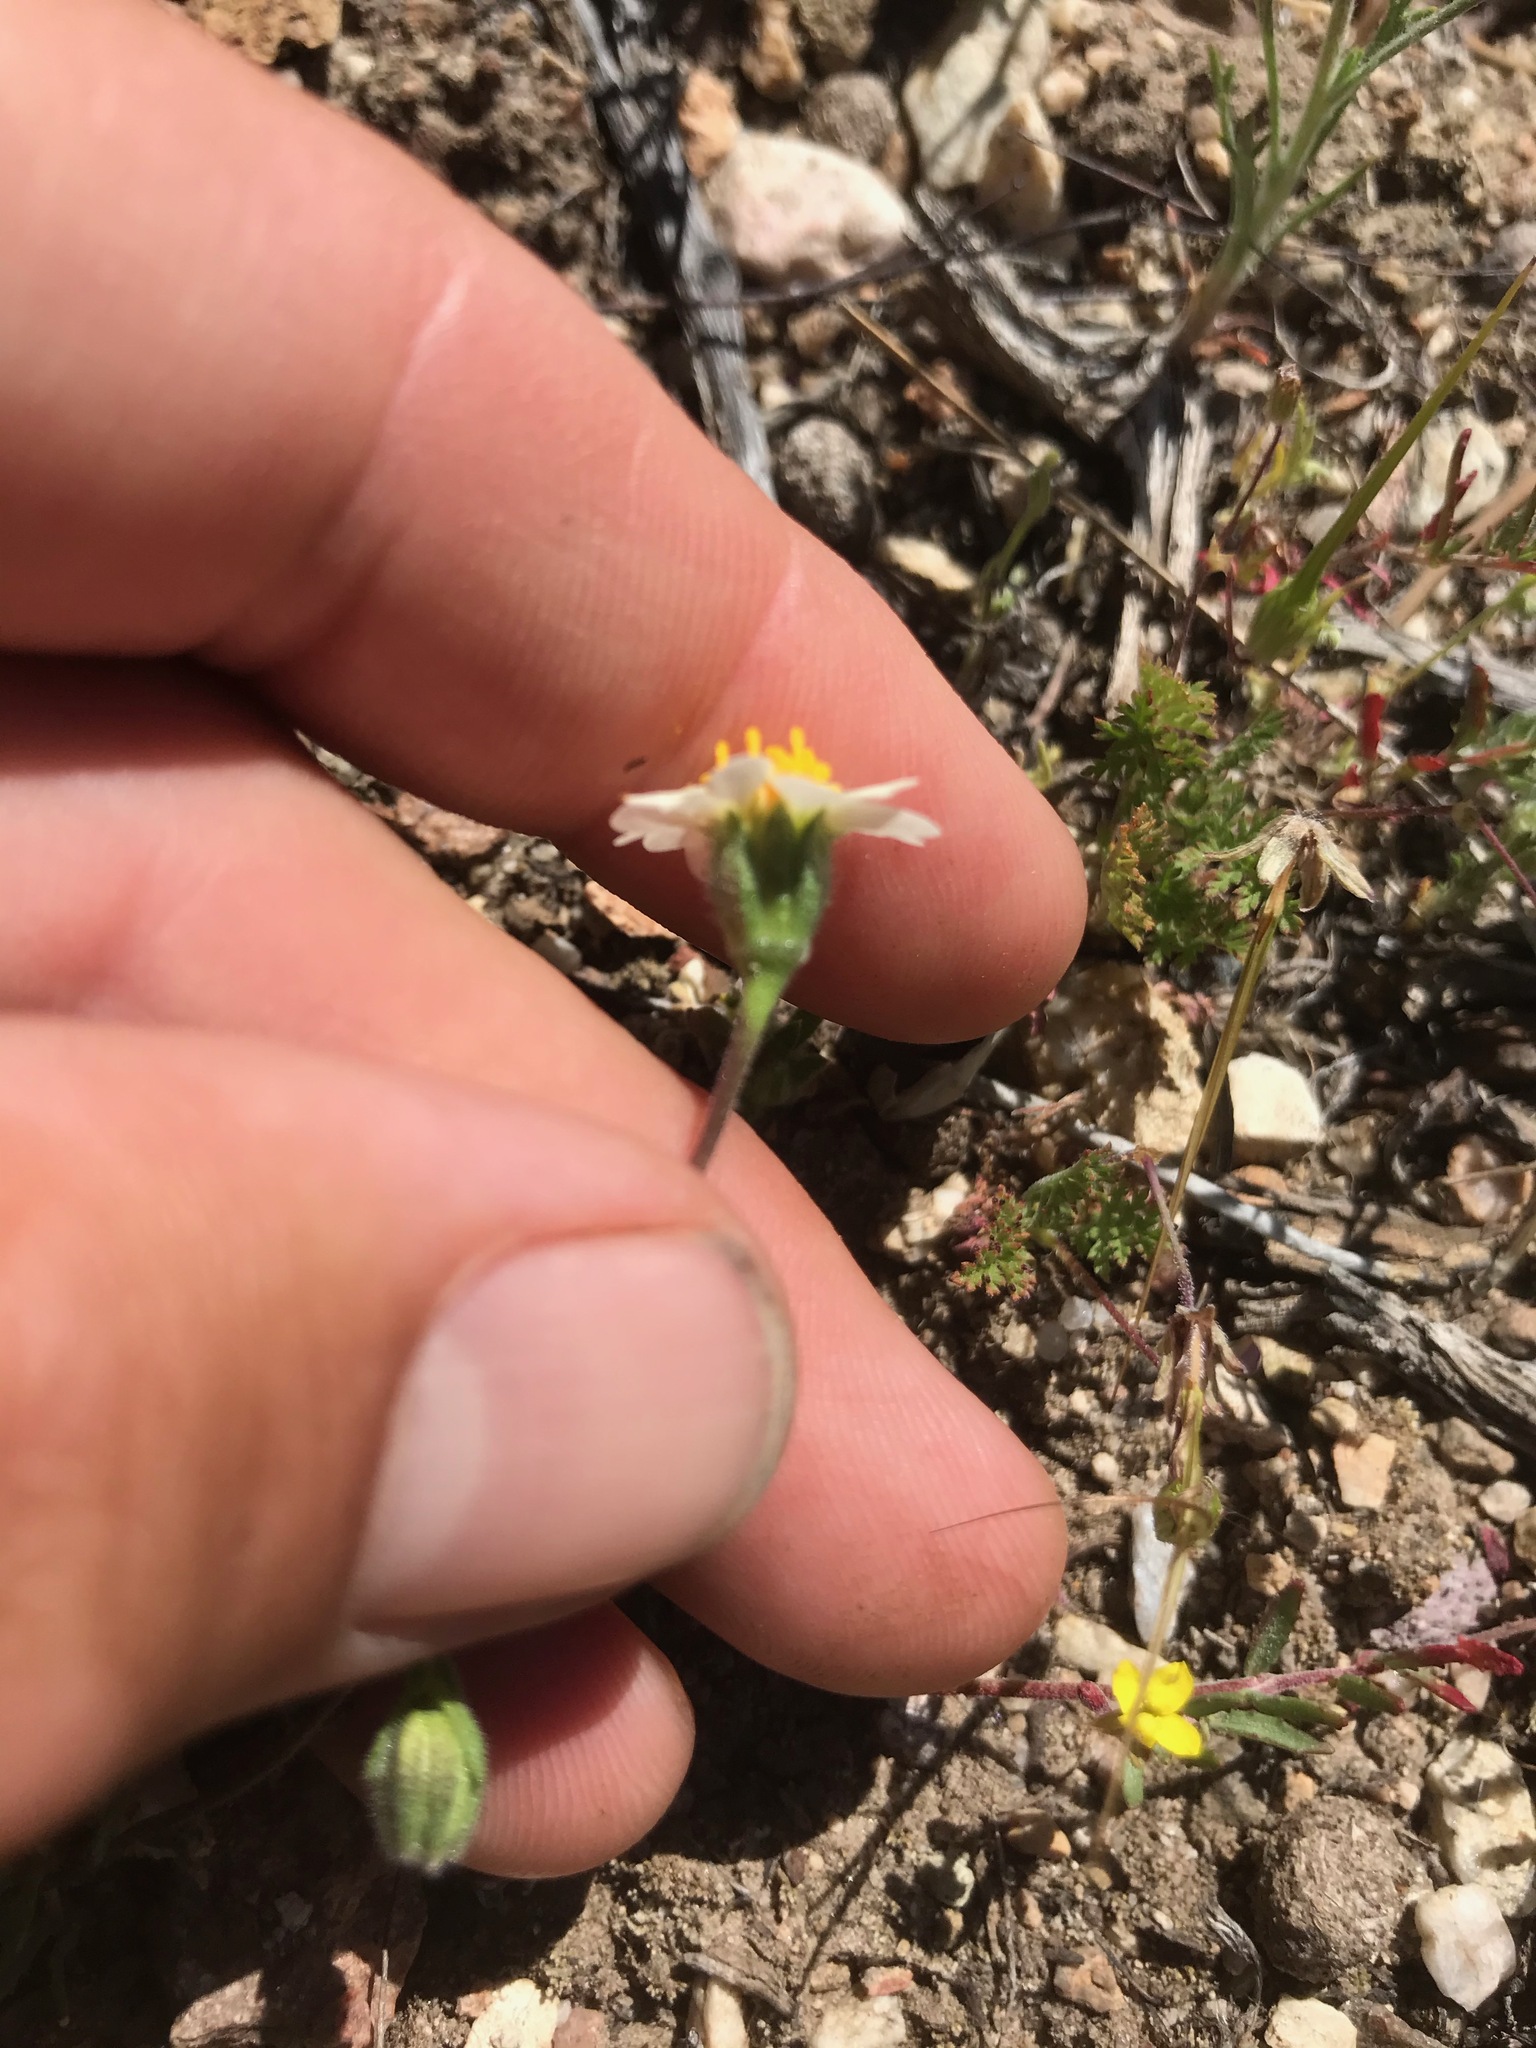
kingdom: Plantae
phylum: Tracheophyta
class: Magnoliopsida
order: Asterales
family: Asteraceae
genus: Layia
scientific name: Layia glandulosa
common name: White layia
